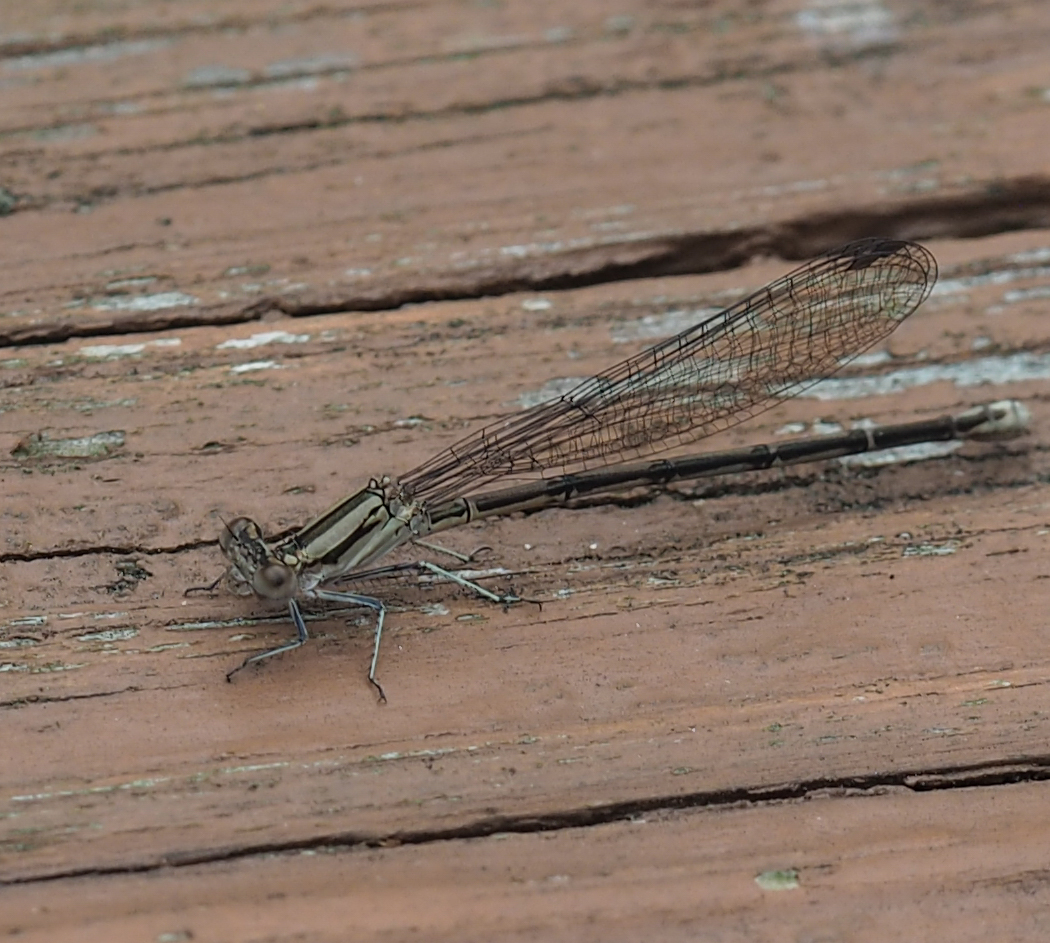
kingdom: Animalia
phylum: Arthropoda
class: Insecta
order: Odonata
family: Coenagrionidae
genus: Argia
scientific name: Argia fumipennis
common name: Variable dancer
